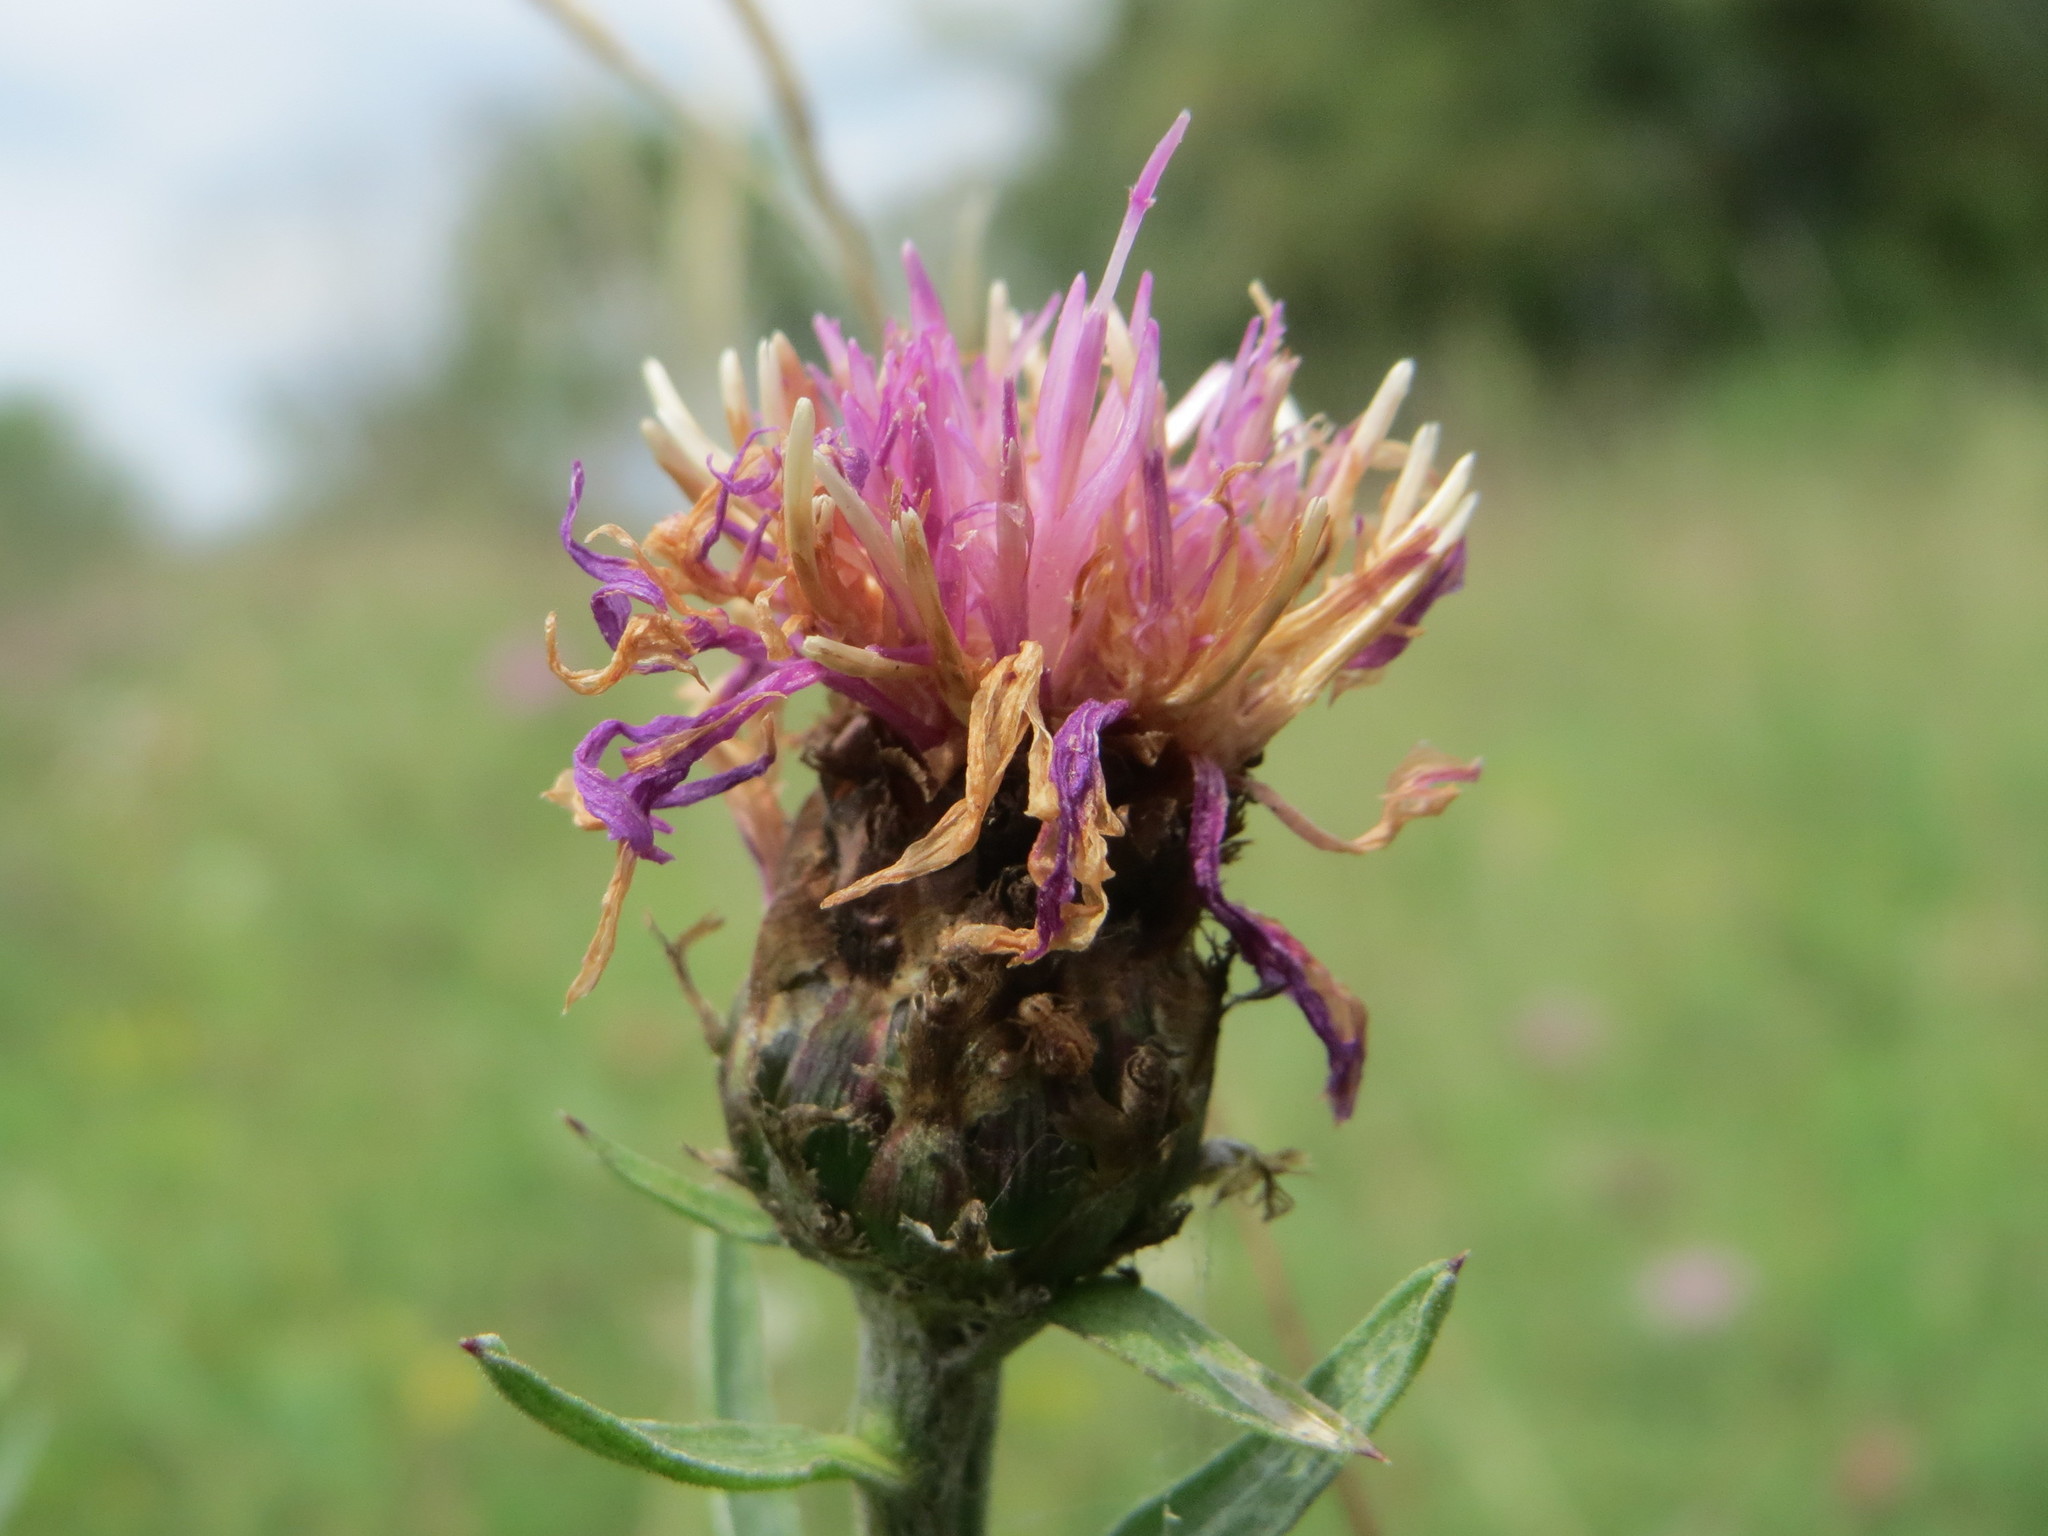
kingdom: Plantae
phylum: Tracheophyta
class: Magnoliopsida
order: Asterales
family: Asteraceae
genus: Centaurea
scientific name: Centaurea jacea
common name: Brown knapweed
